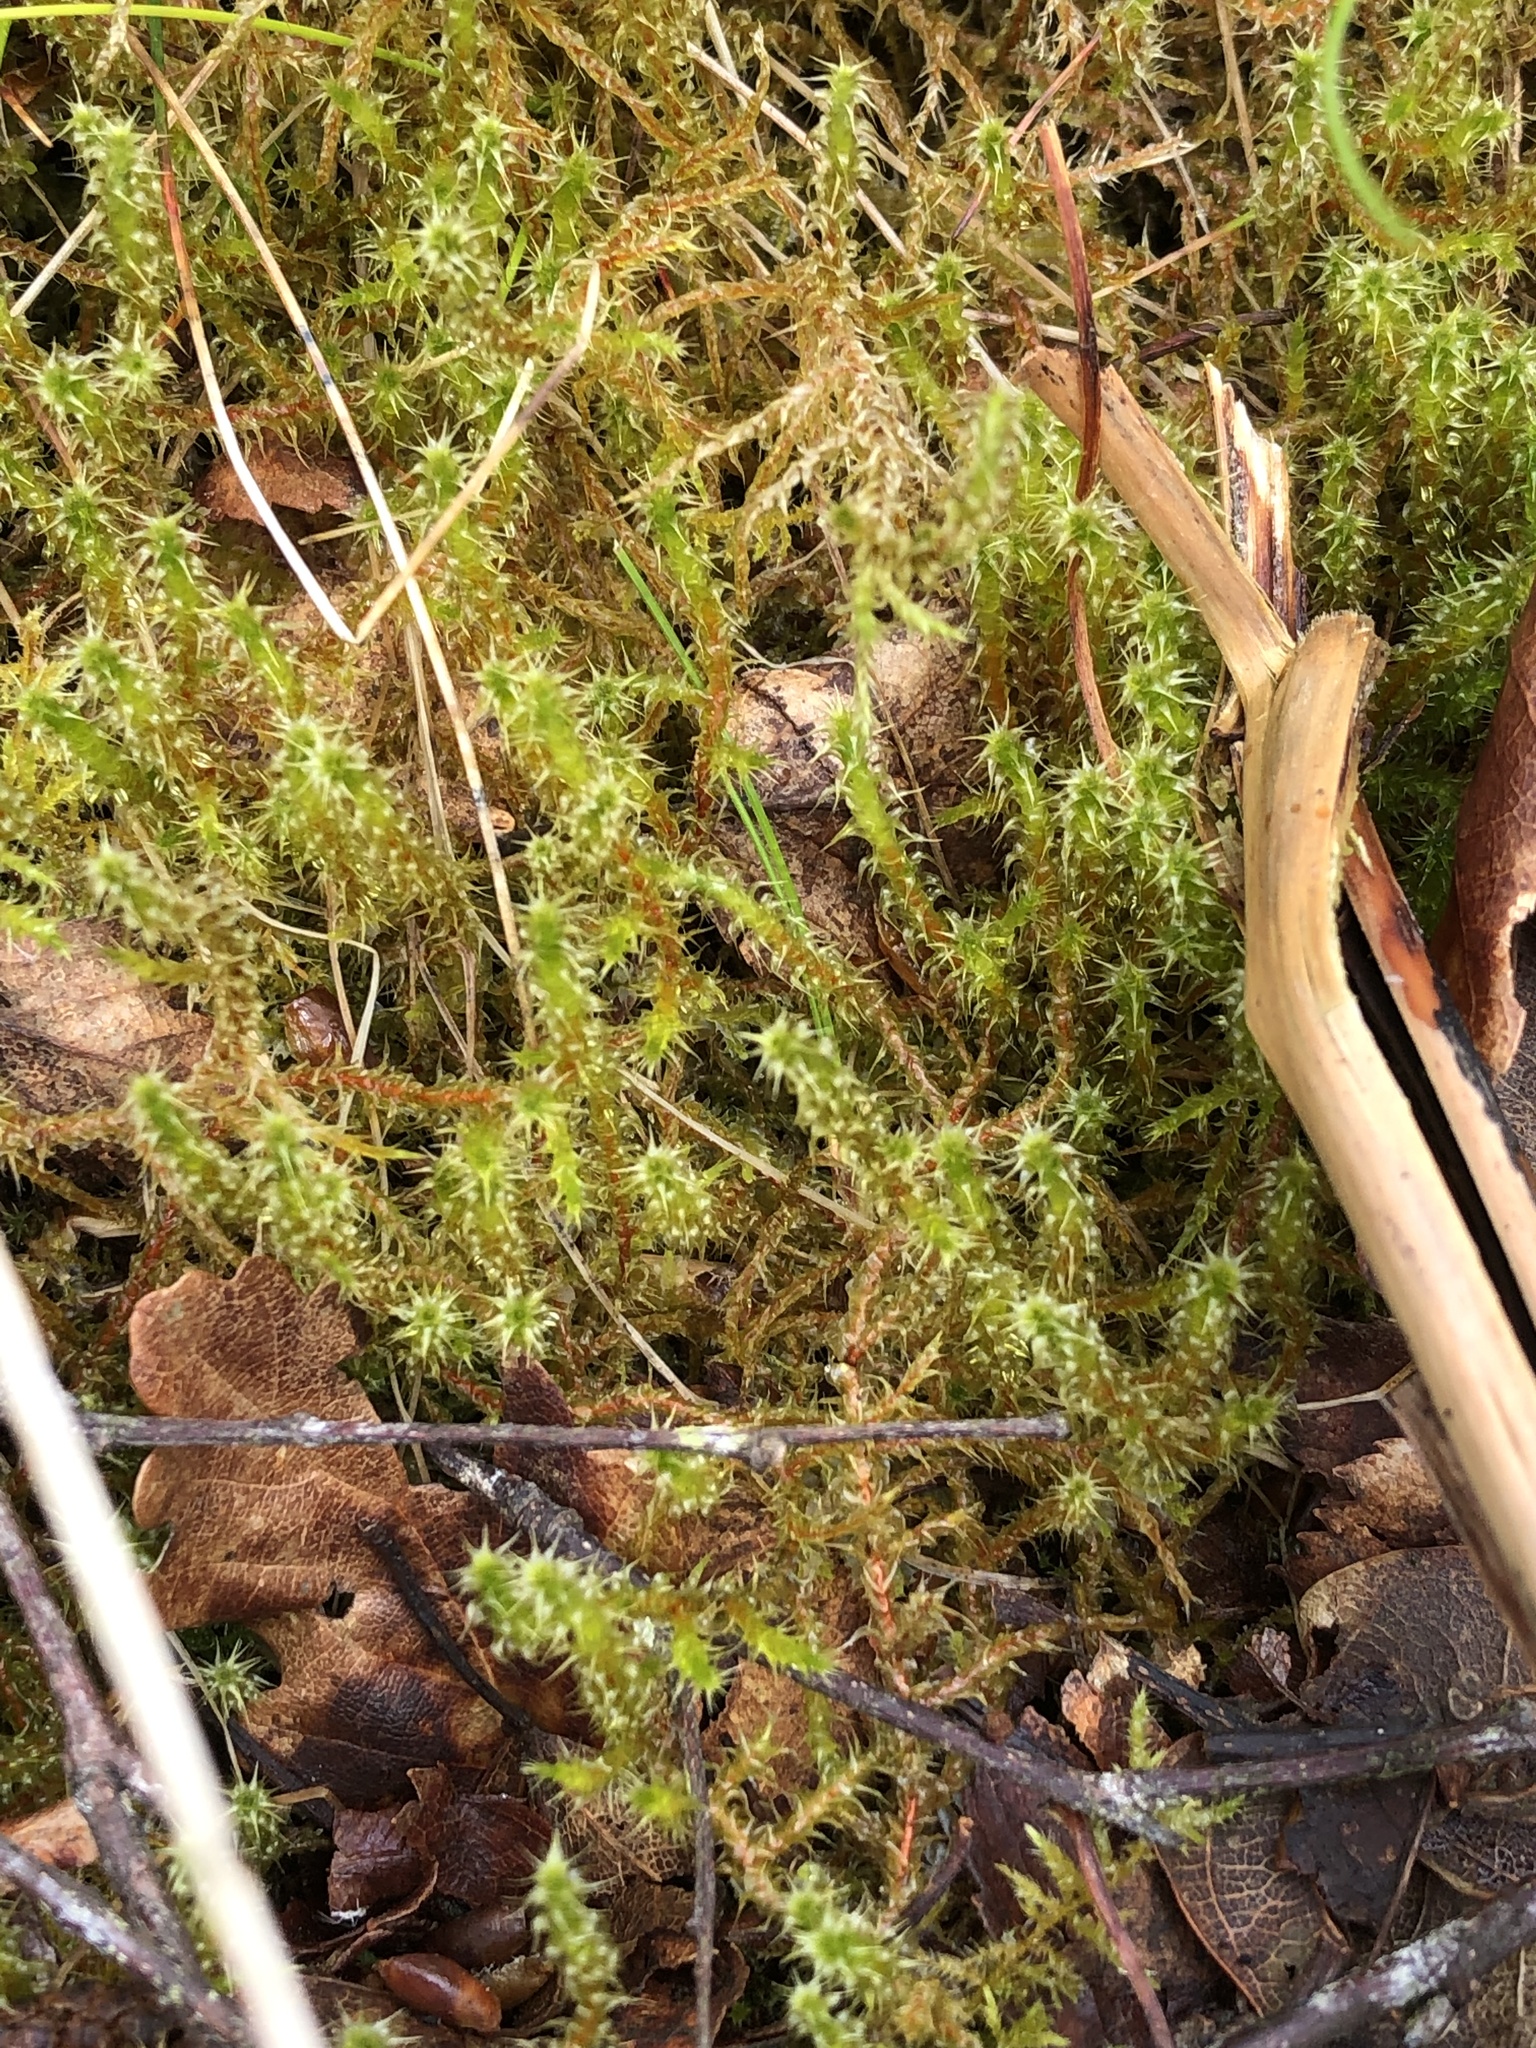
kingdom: Plantae
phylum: Bryophyta
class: Bryopsida
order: Hypnales
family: Hylocomiaceae
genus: Rhytidiadelphus
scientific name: Rhytidiadelphus squarrosus
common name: Springy turf-moss
